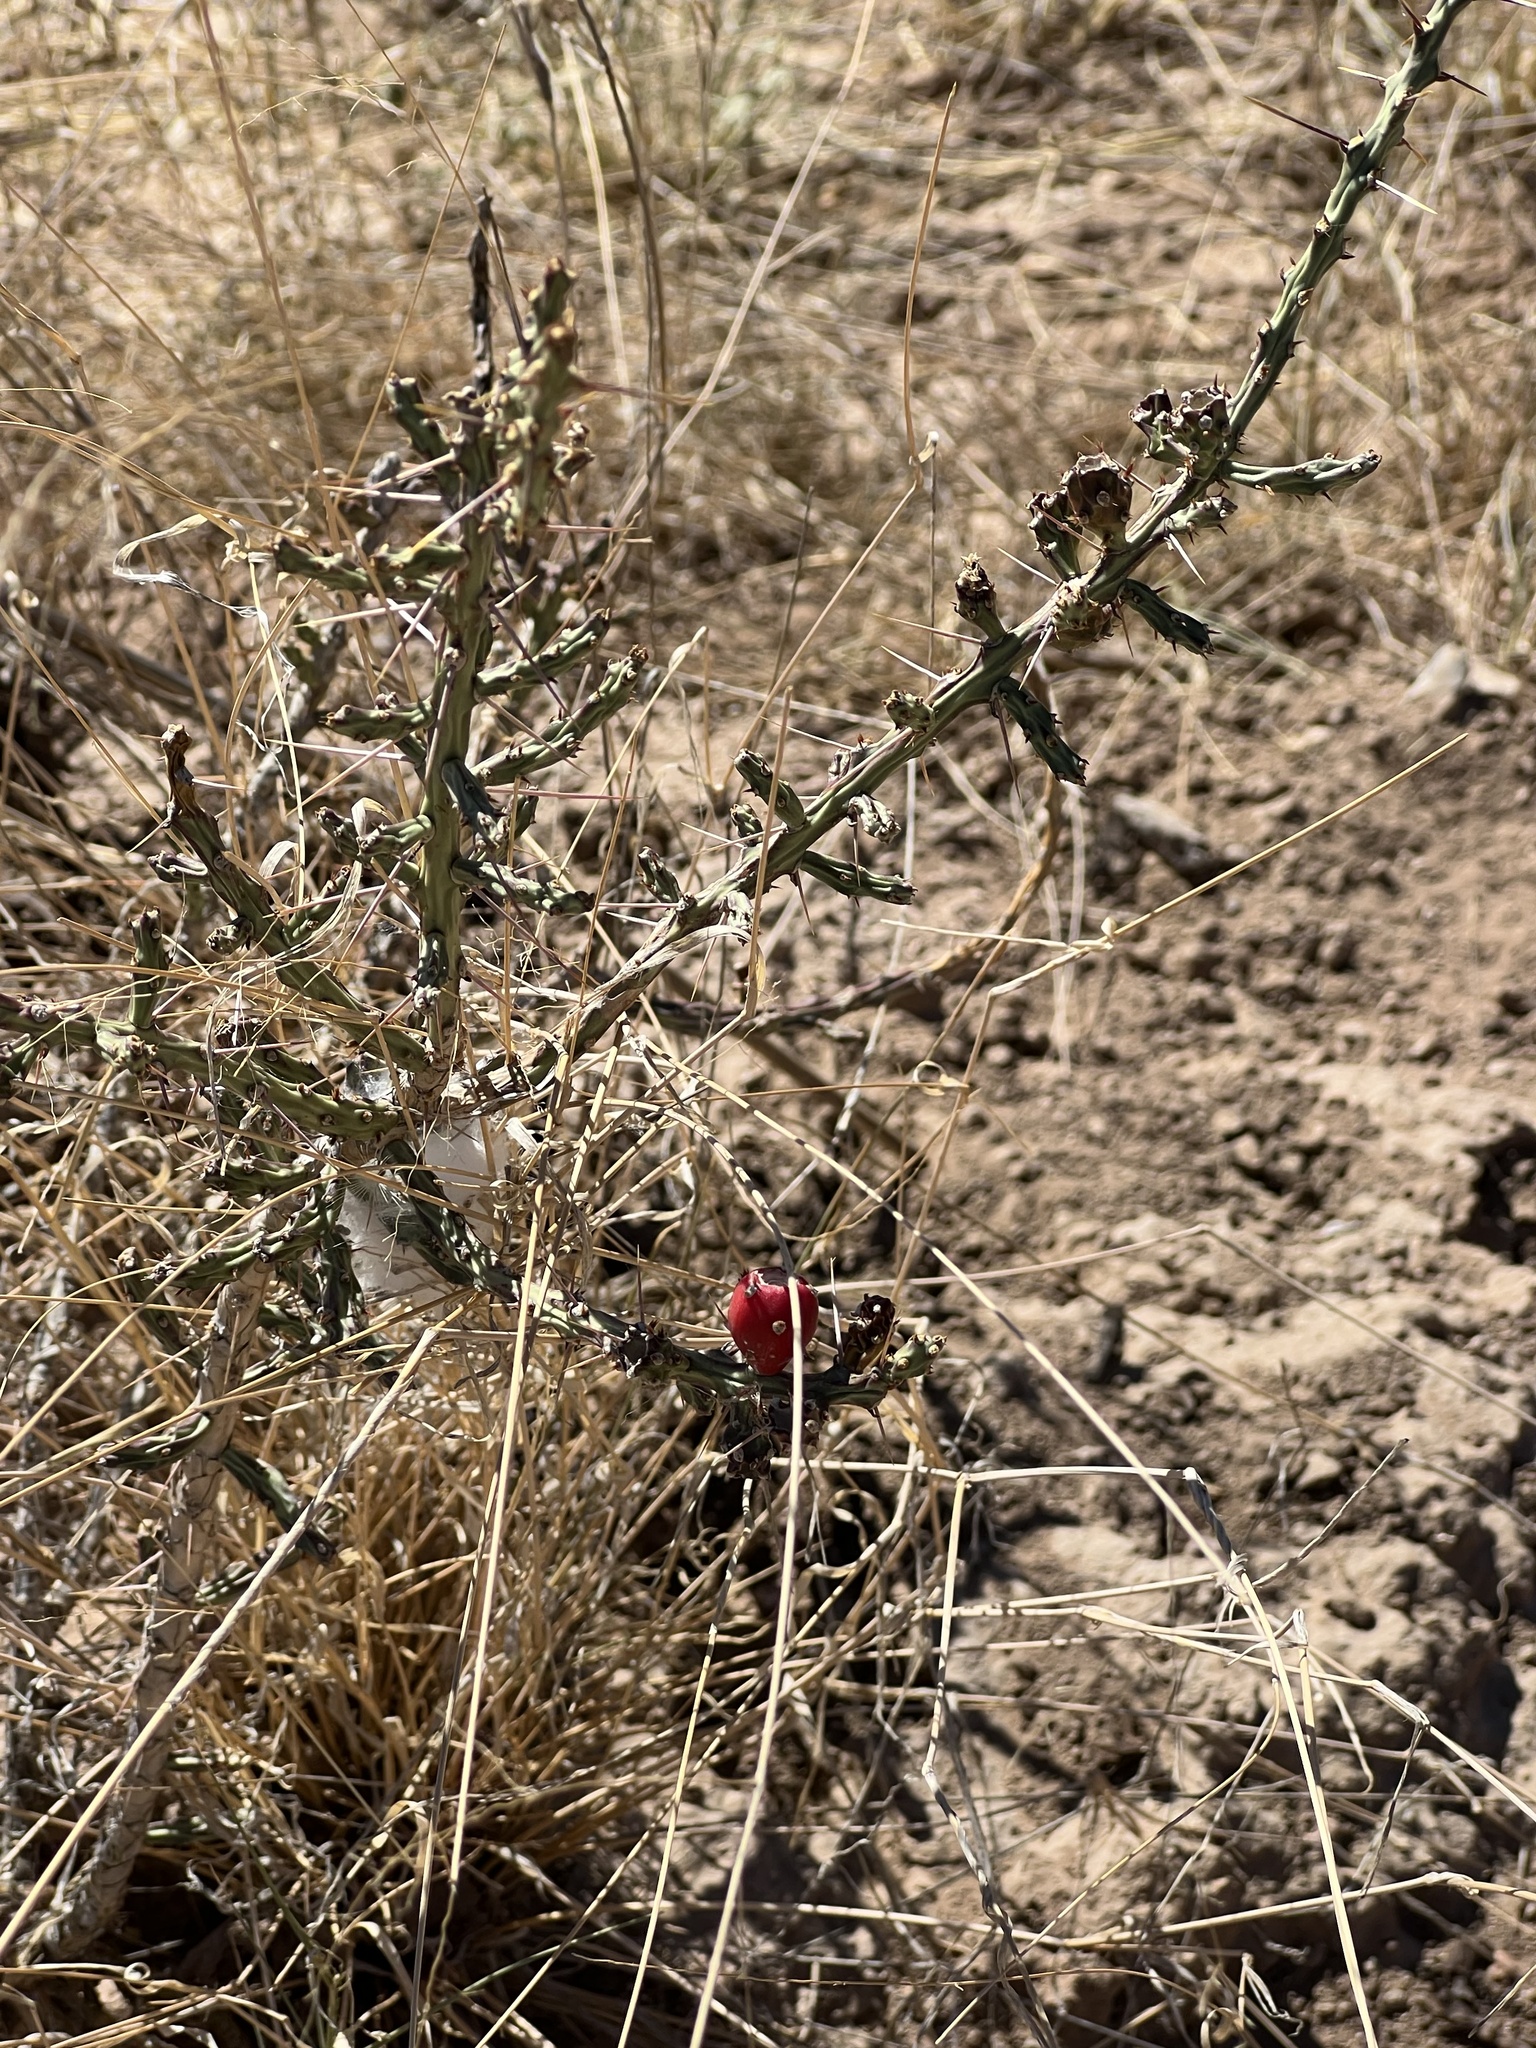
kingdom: Plantae
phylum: Tracheophyta
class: Magnoliopsida
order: Caryophyllales
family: Cactaceae
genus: Cylindropuntia
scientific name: Cylindropuntia leptocaulis
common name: Christmas cactus
